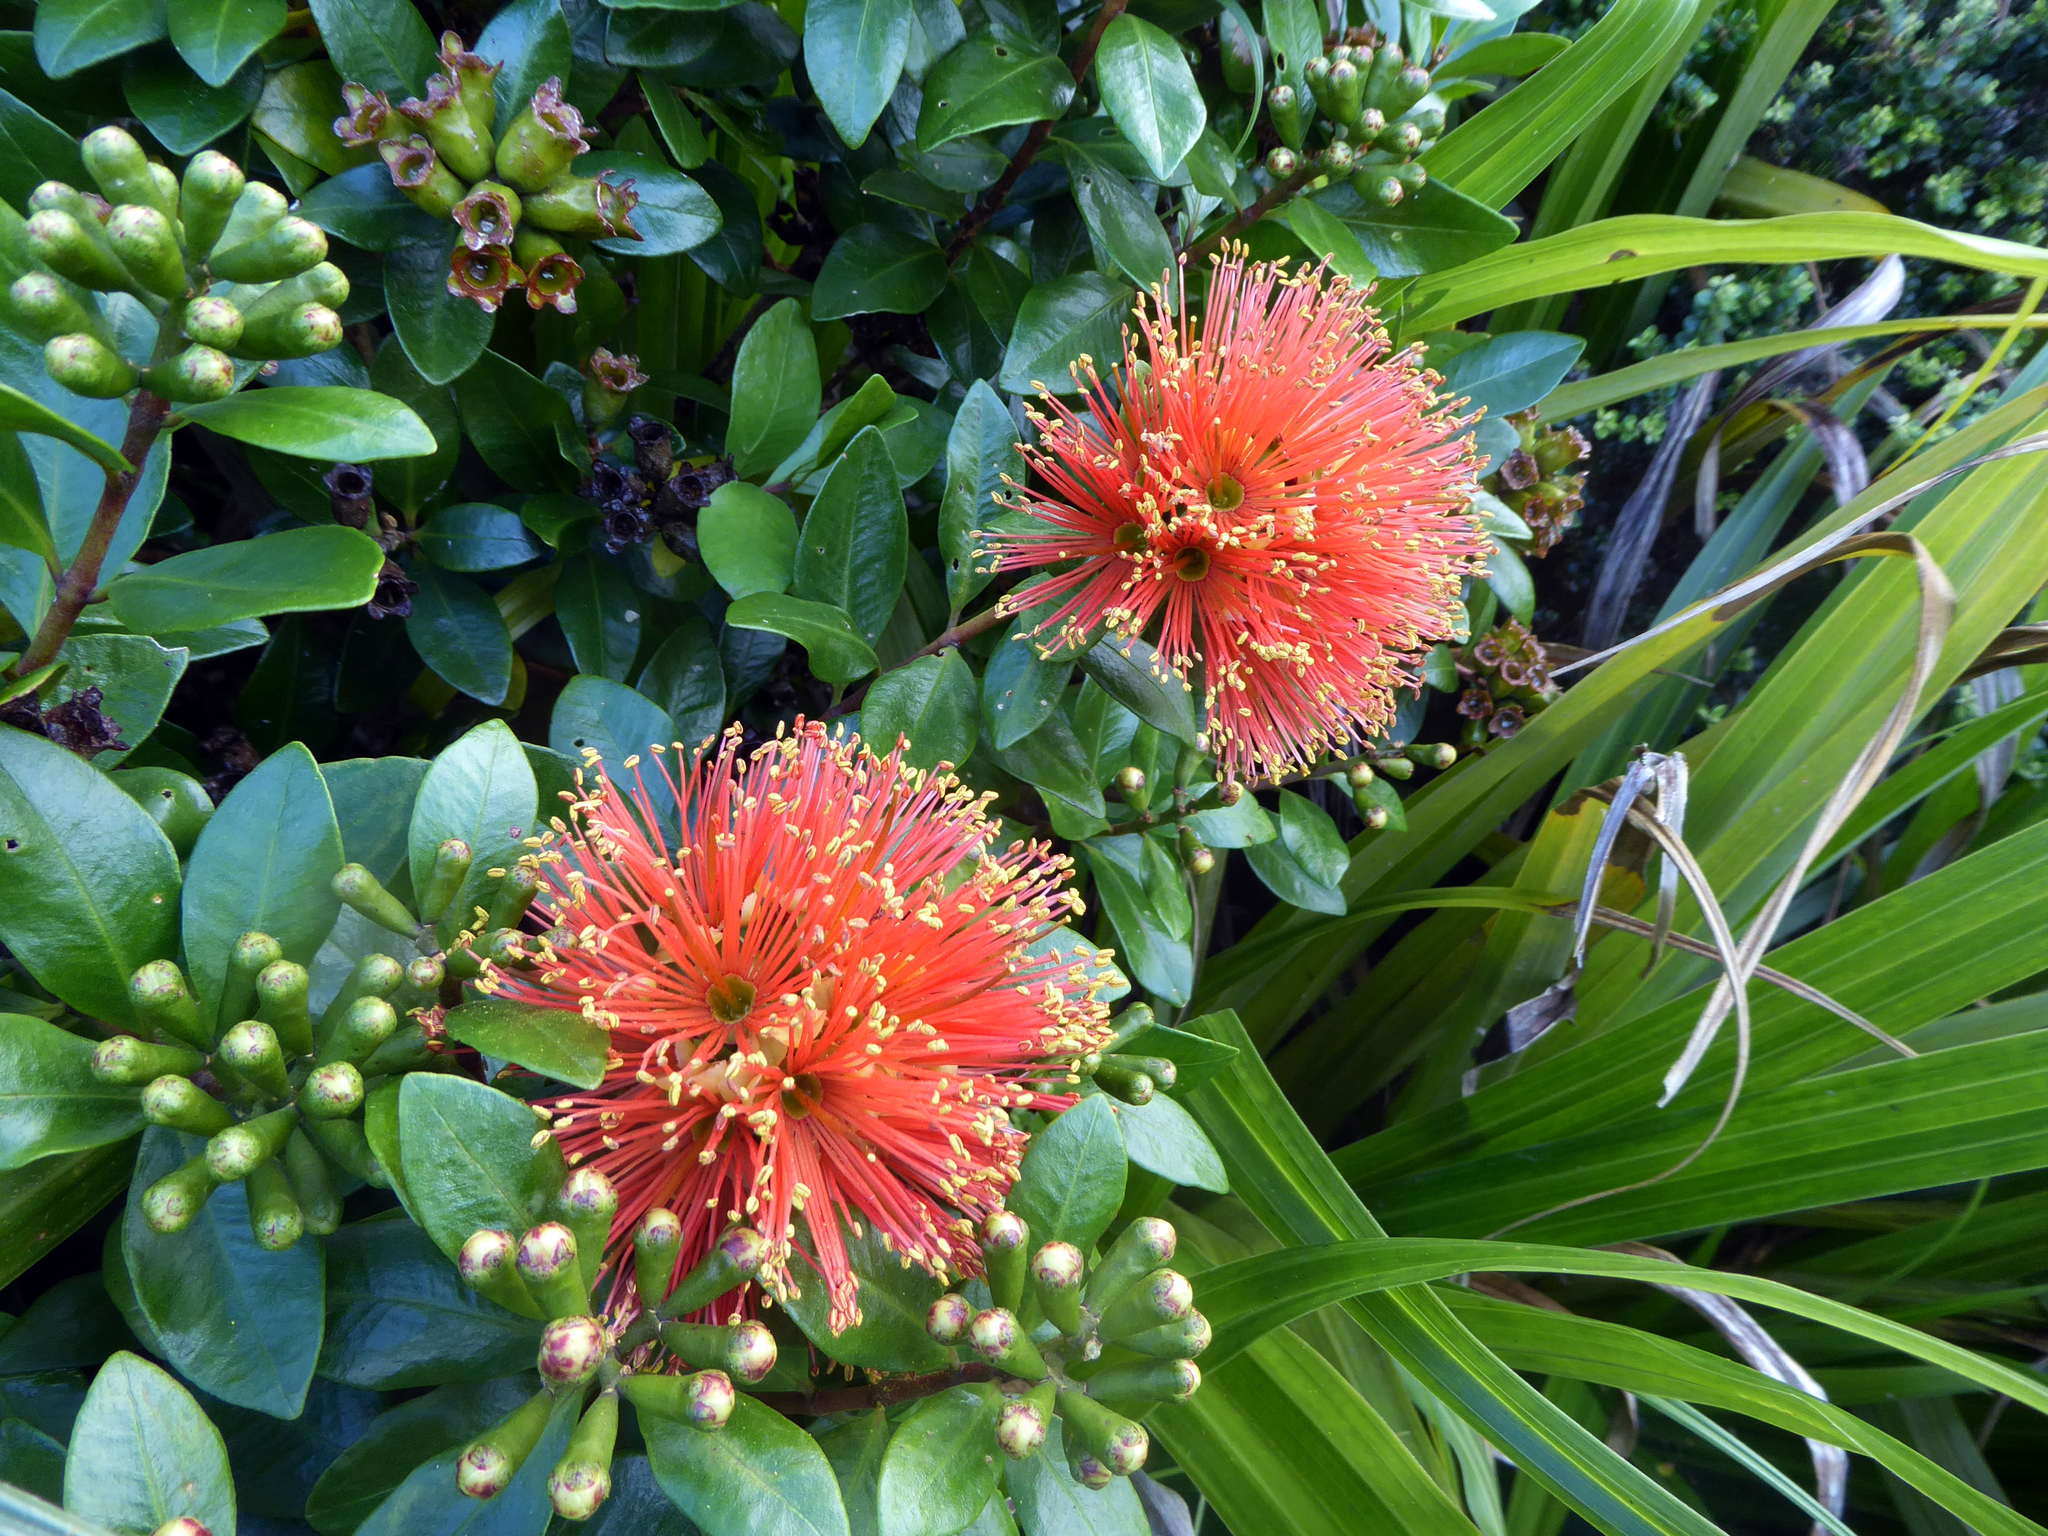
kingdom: Plantae
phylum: Tracheophyta
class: Magnoliopsida
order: Myrtales
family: Myrtaceae
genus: Metrosideros
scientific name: Metrosideros fulgens
